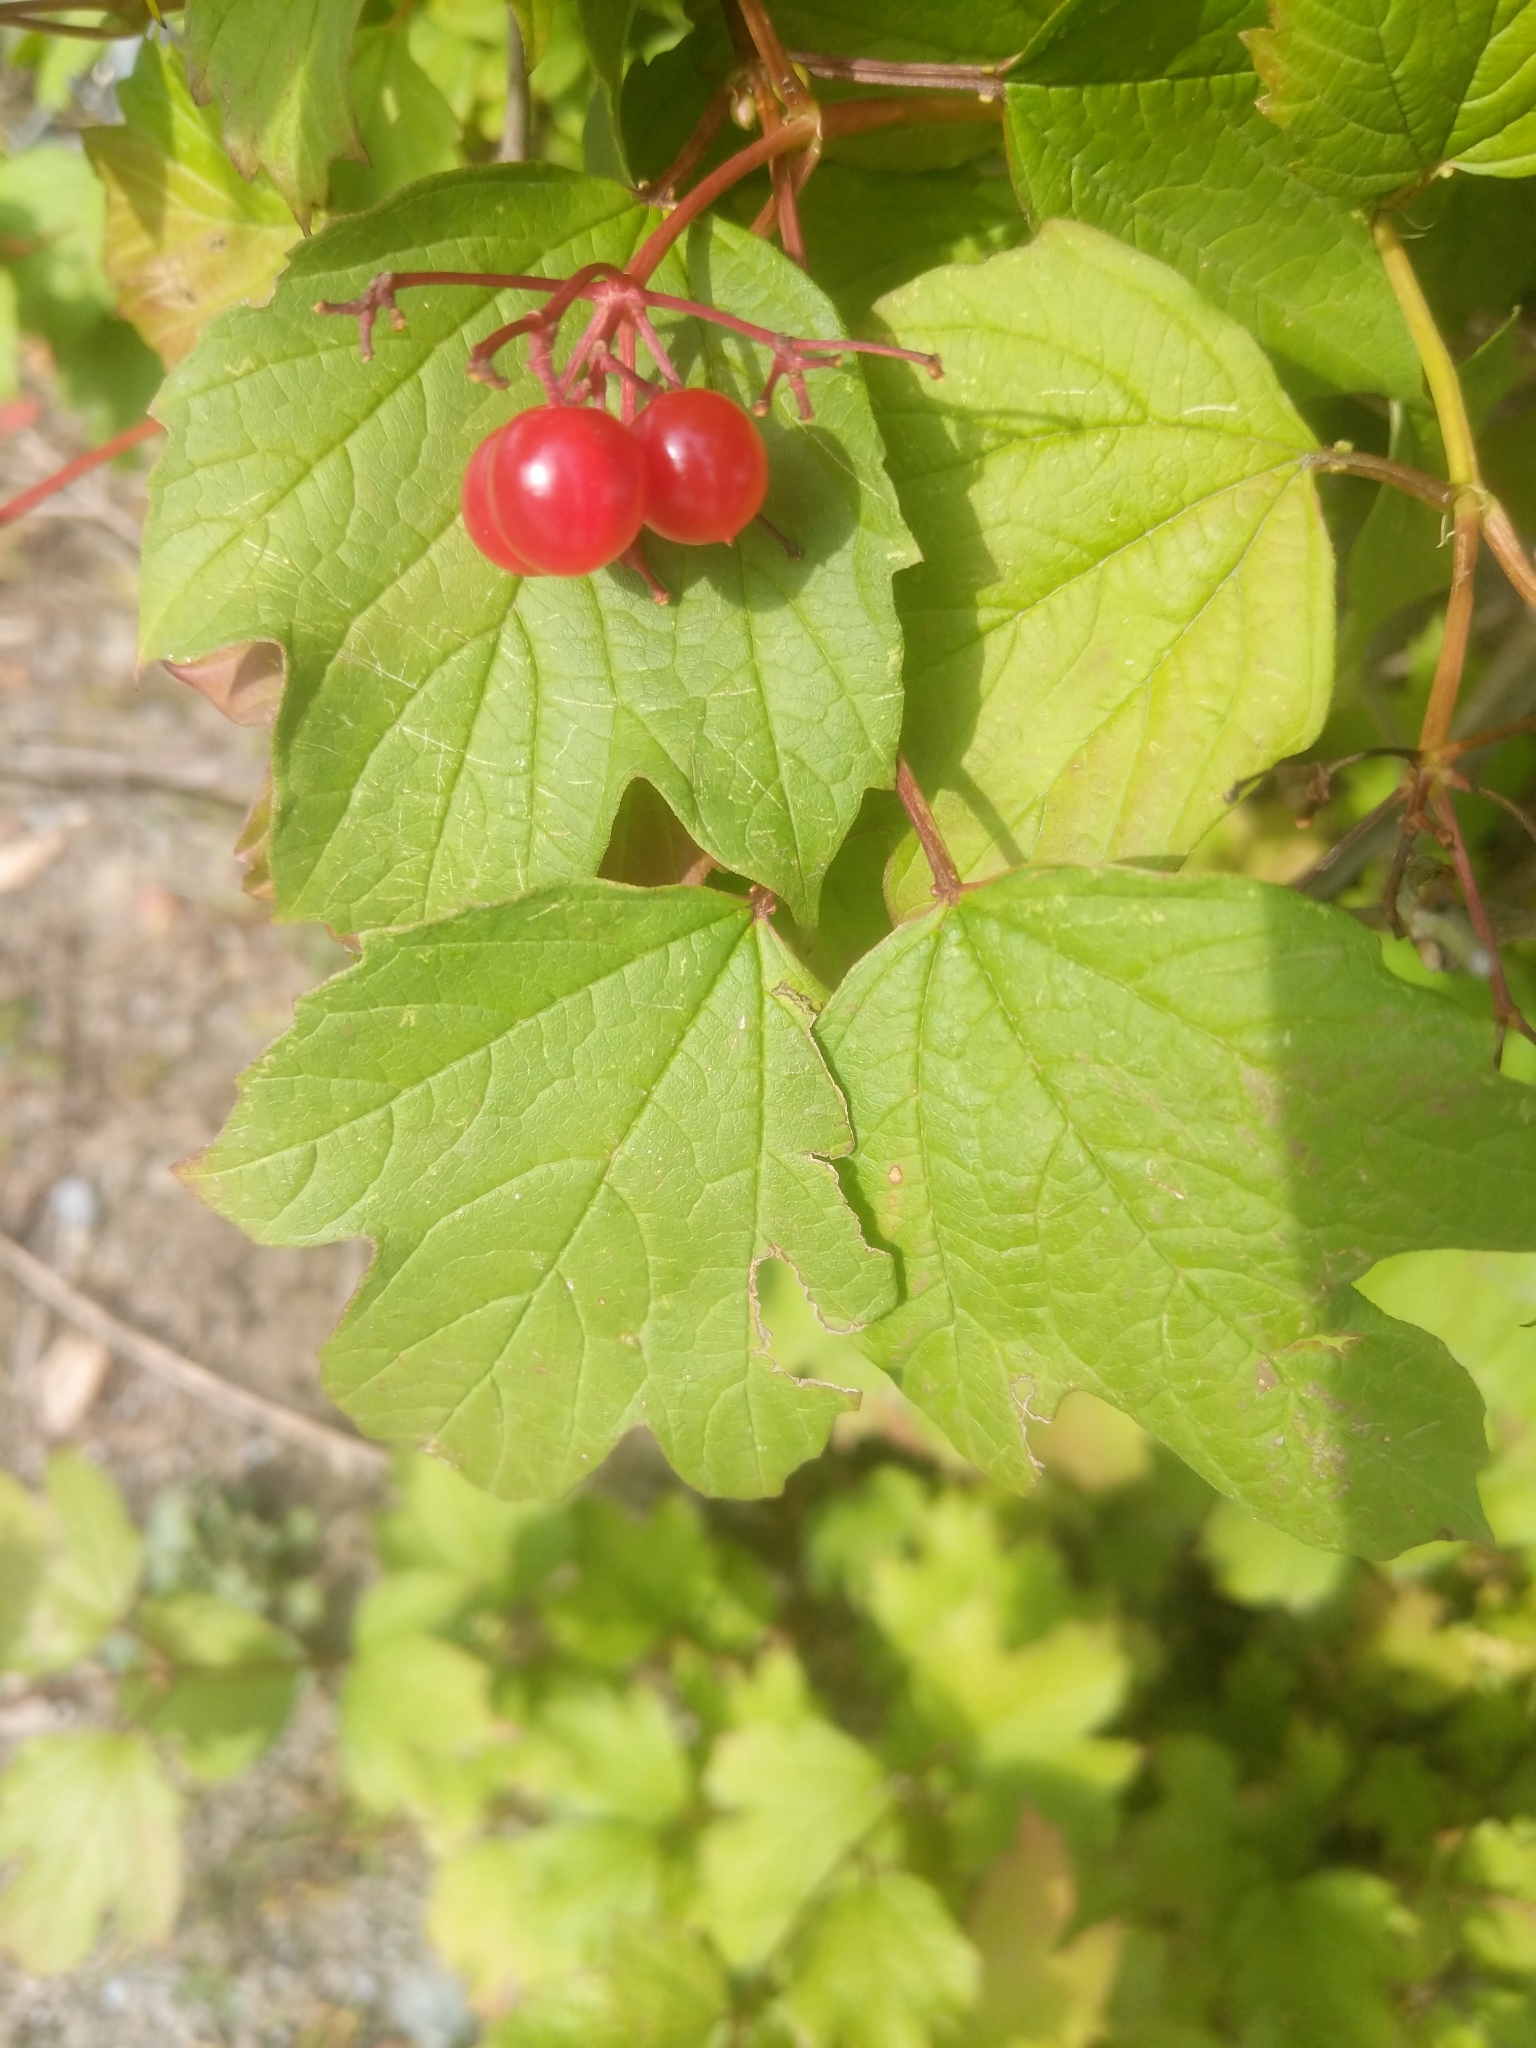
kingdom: Plantae
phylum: Tracheophyta
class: Magnoliopsida
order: Dipsacales
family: Viburnaceae
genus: Viburnum
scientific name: Viburnum opulus
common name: Guelder-rose
